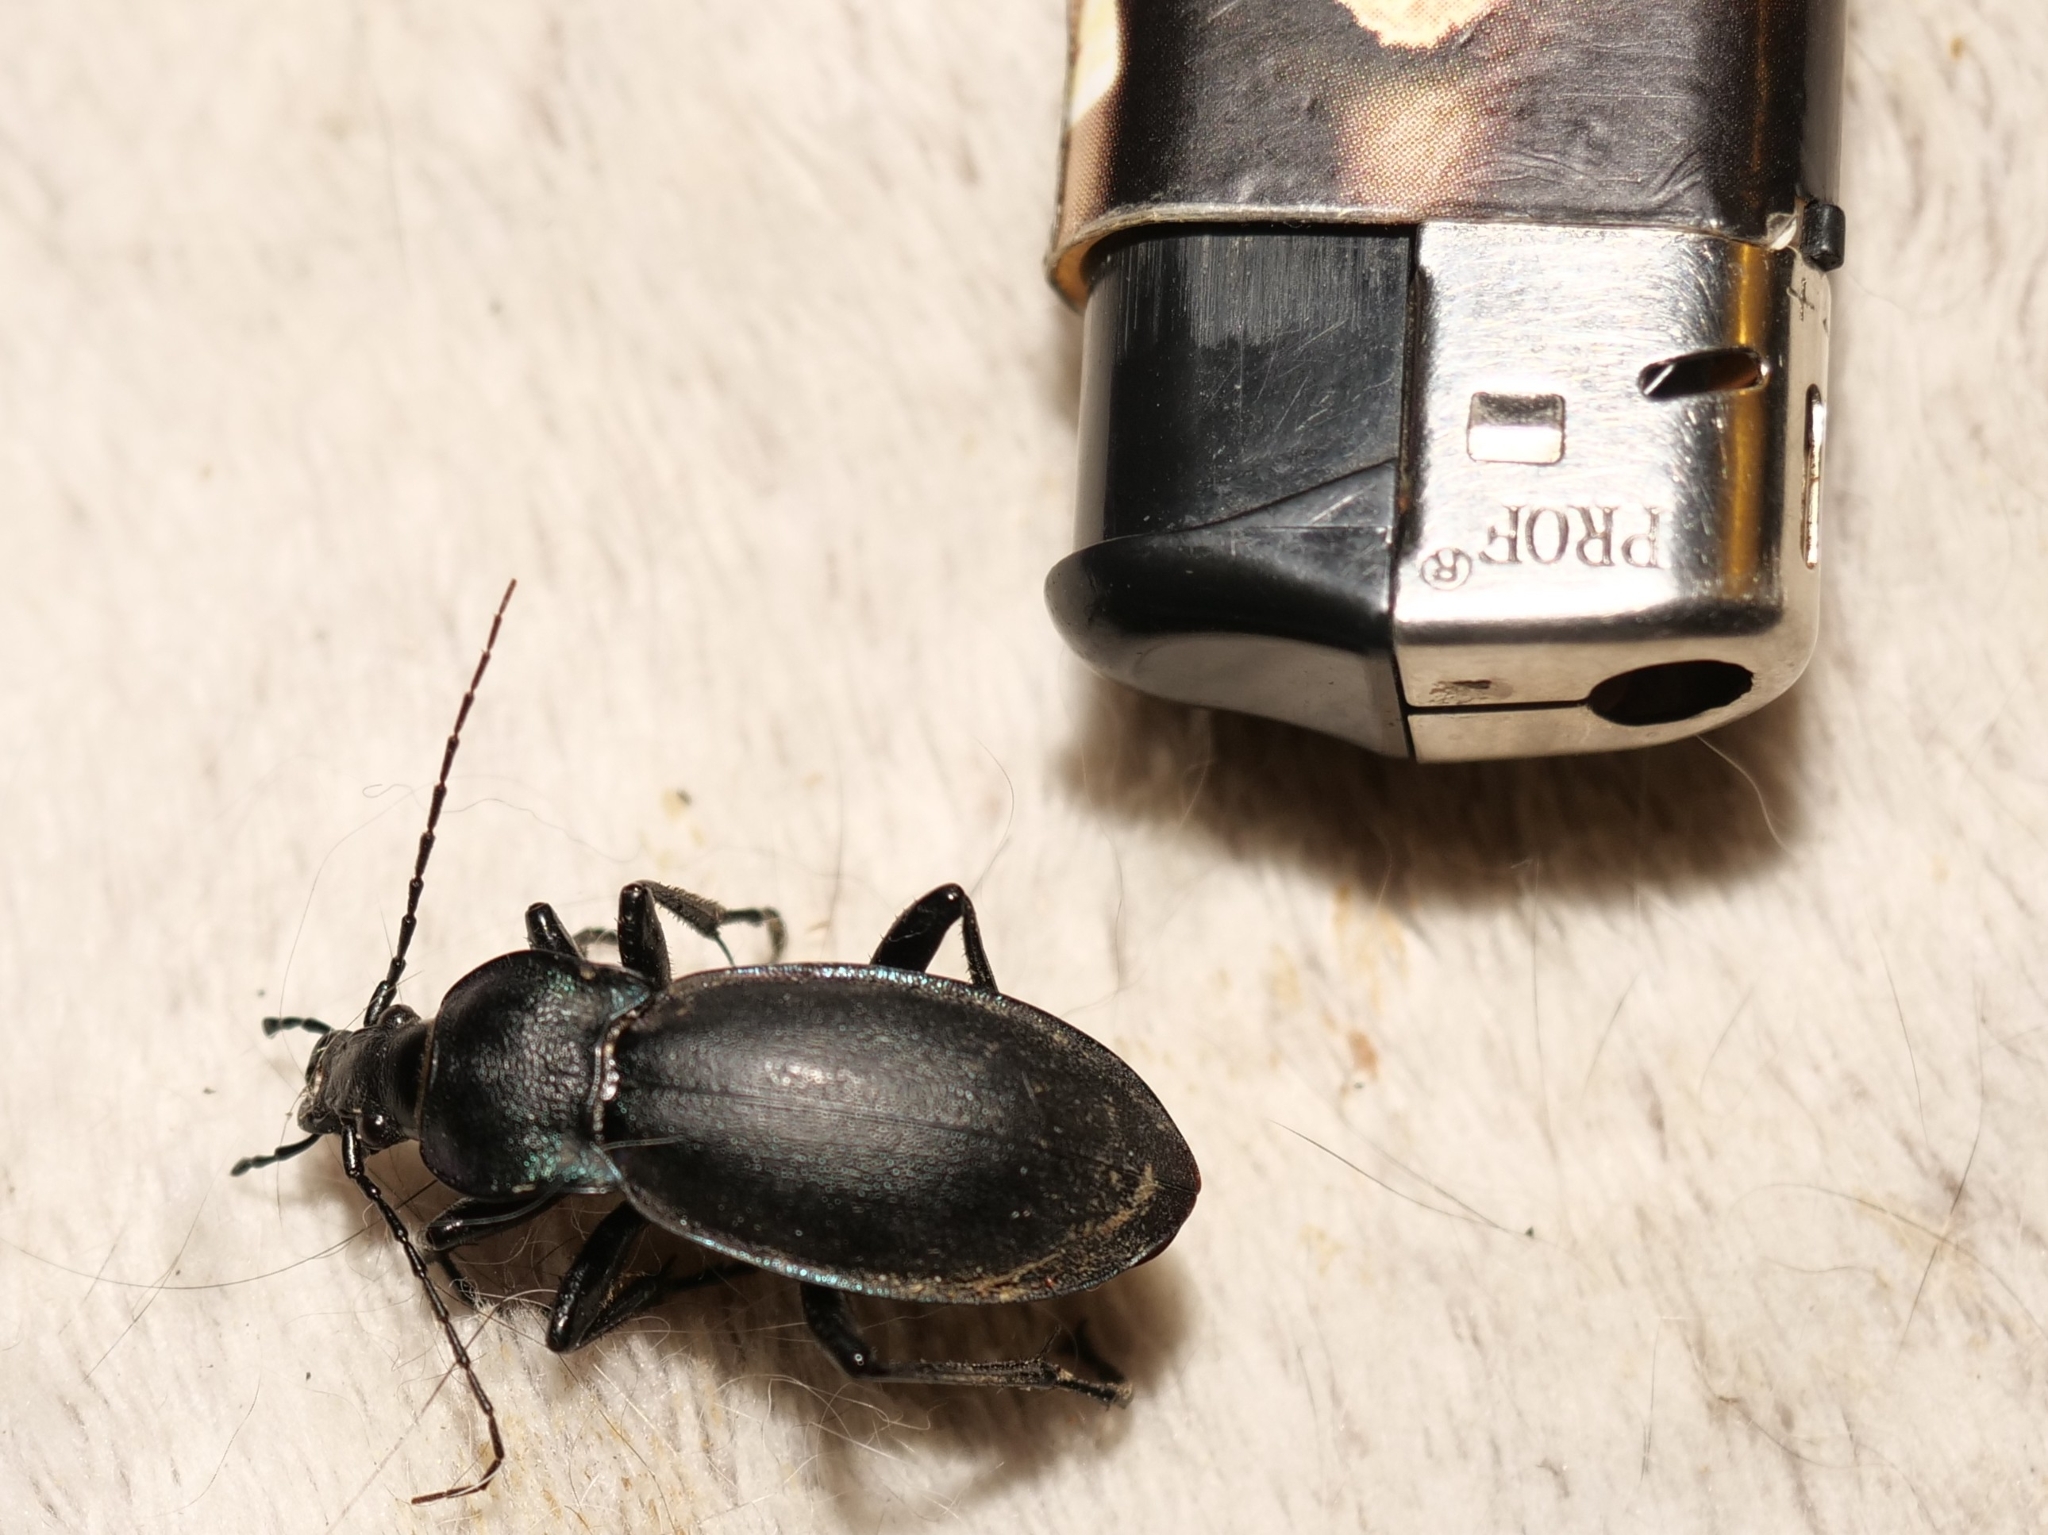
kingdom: Animalia
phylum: Arthropoda
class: Insecta
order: Coleoptera
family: Carabidae
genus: Carabus
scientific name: Carabus germarii
